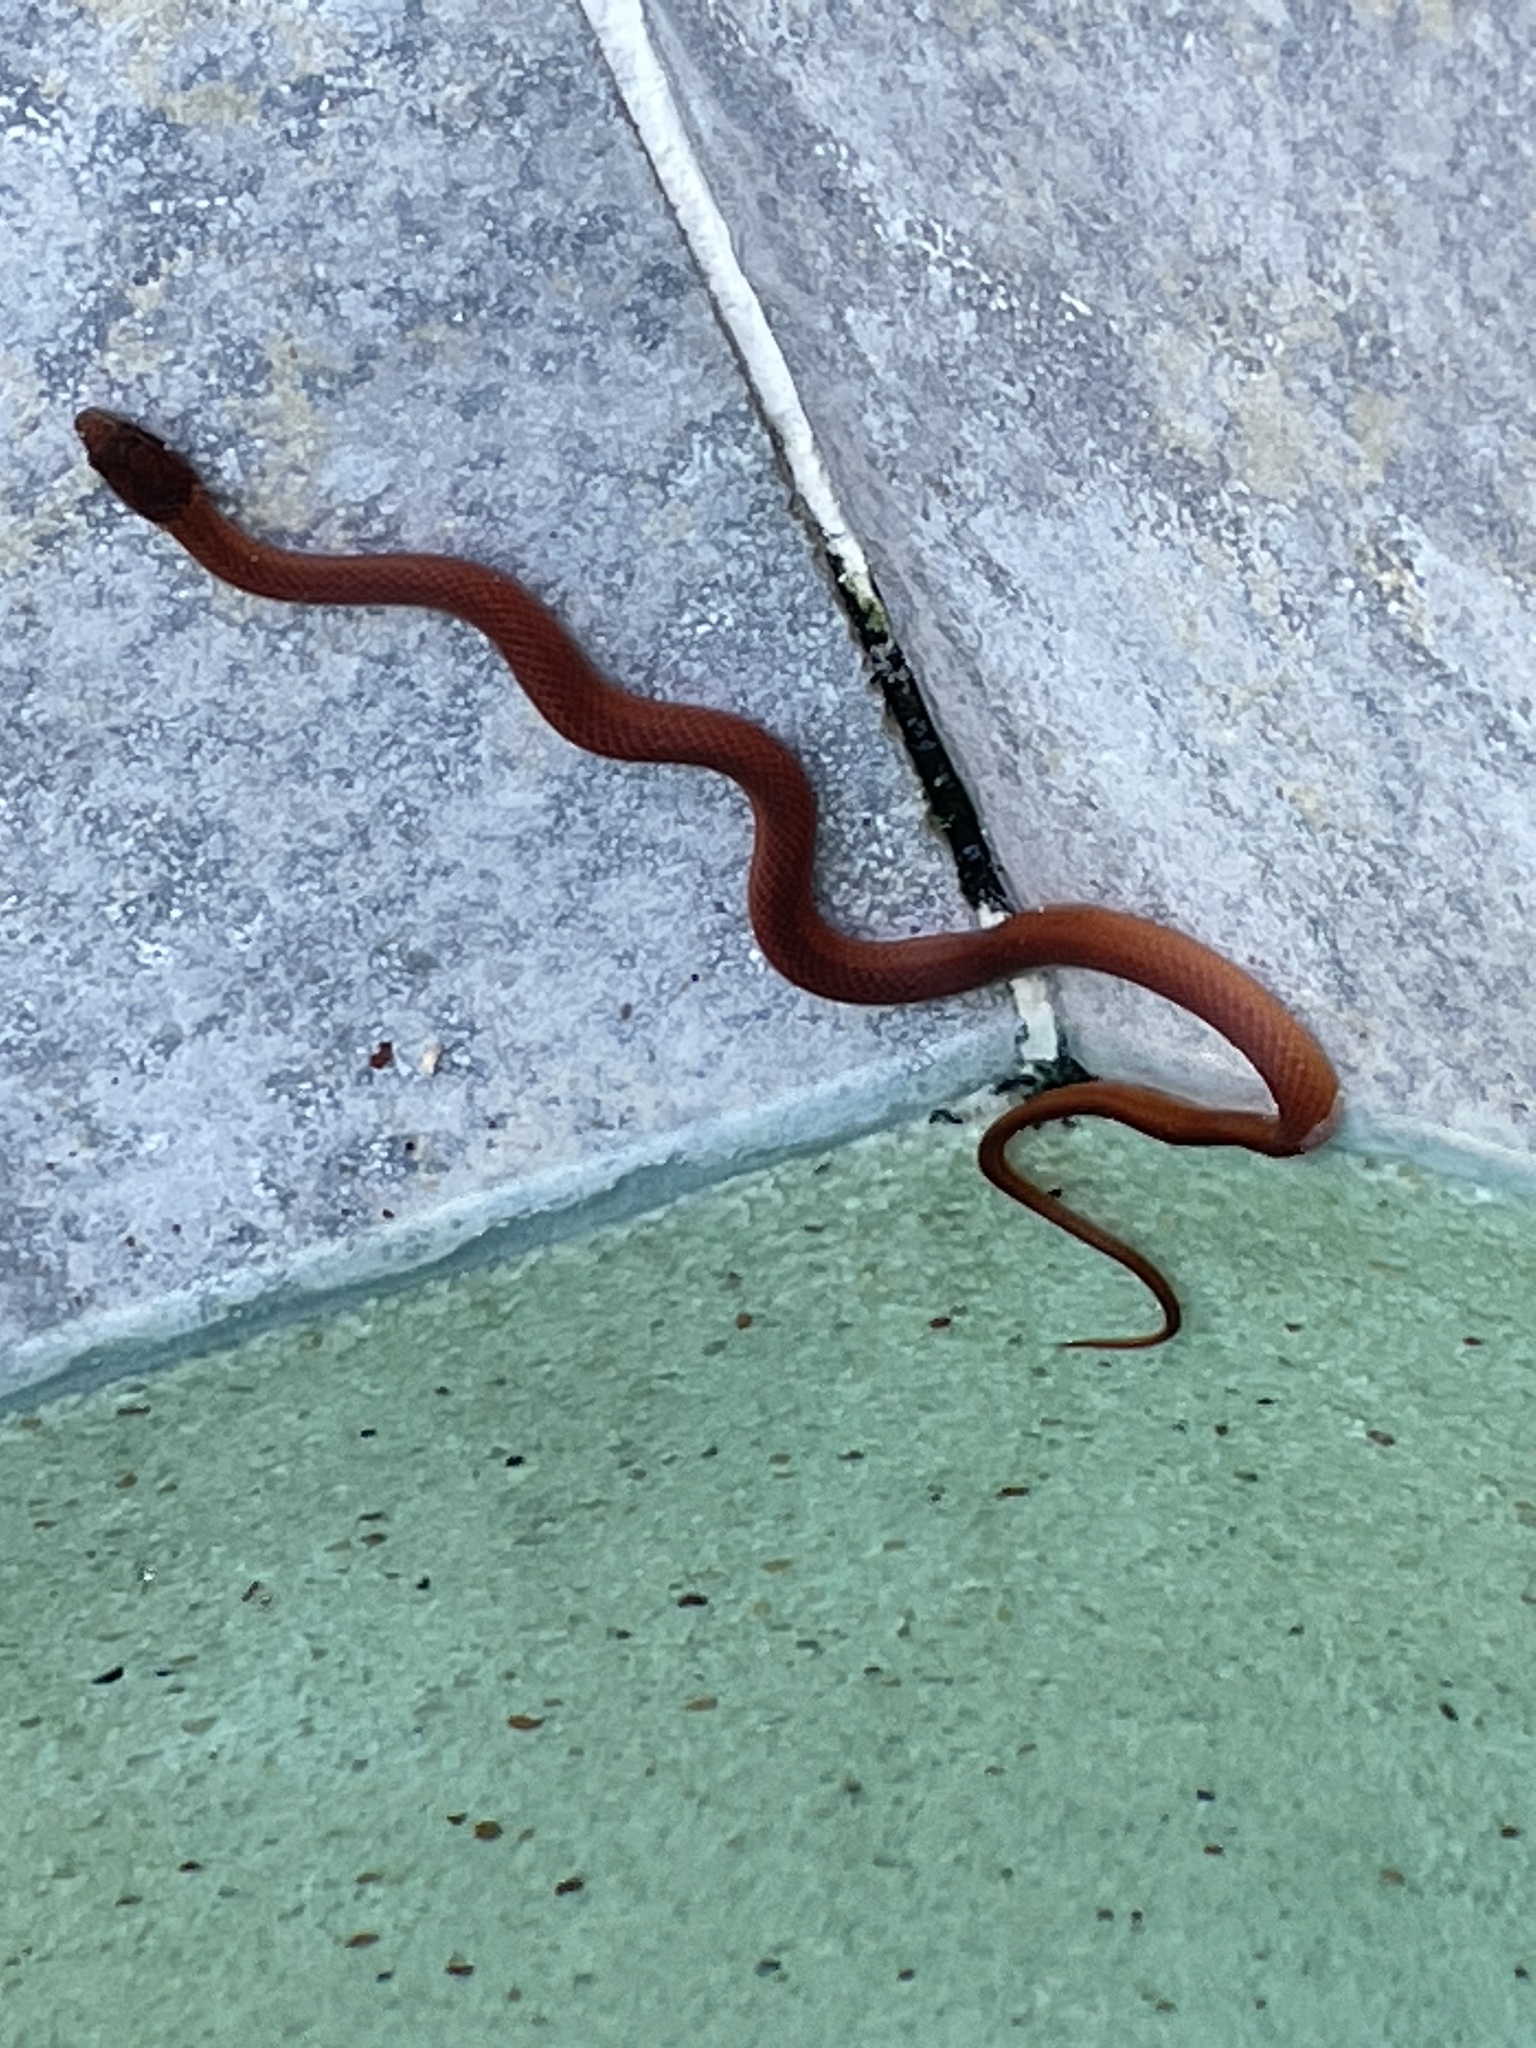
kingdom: Animalia
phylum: Chordata
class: Squamata
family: Colubridae
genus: Rhadinaea
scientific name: Rhadinaea flavilata
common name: Pine woods littersnake
